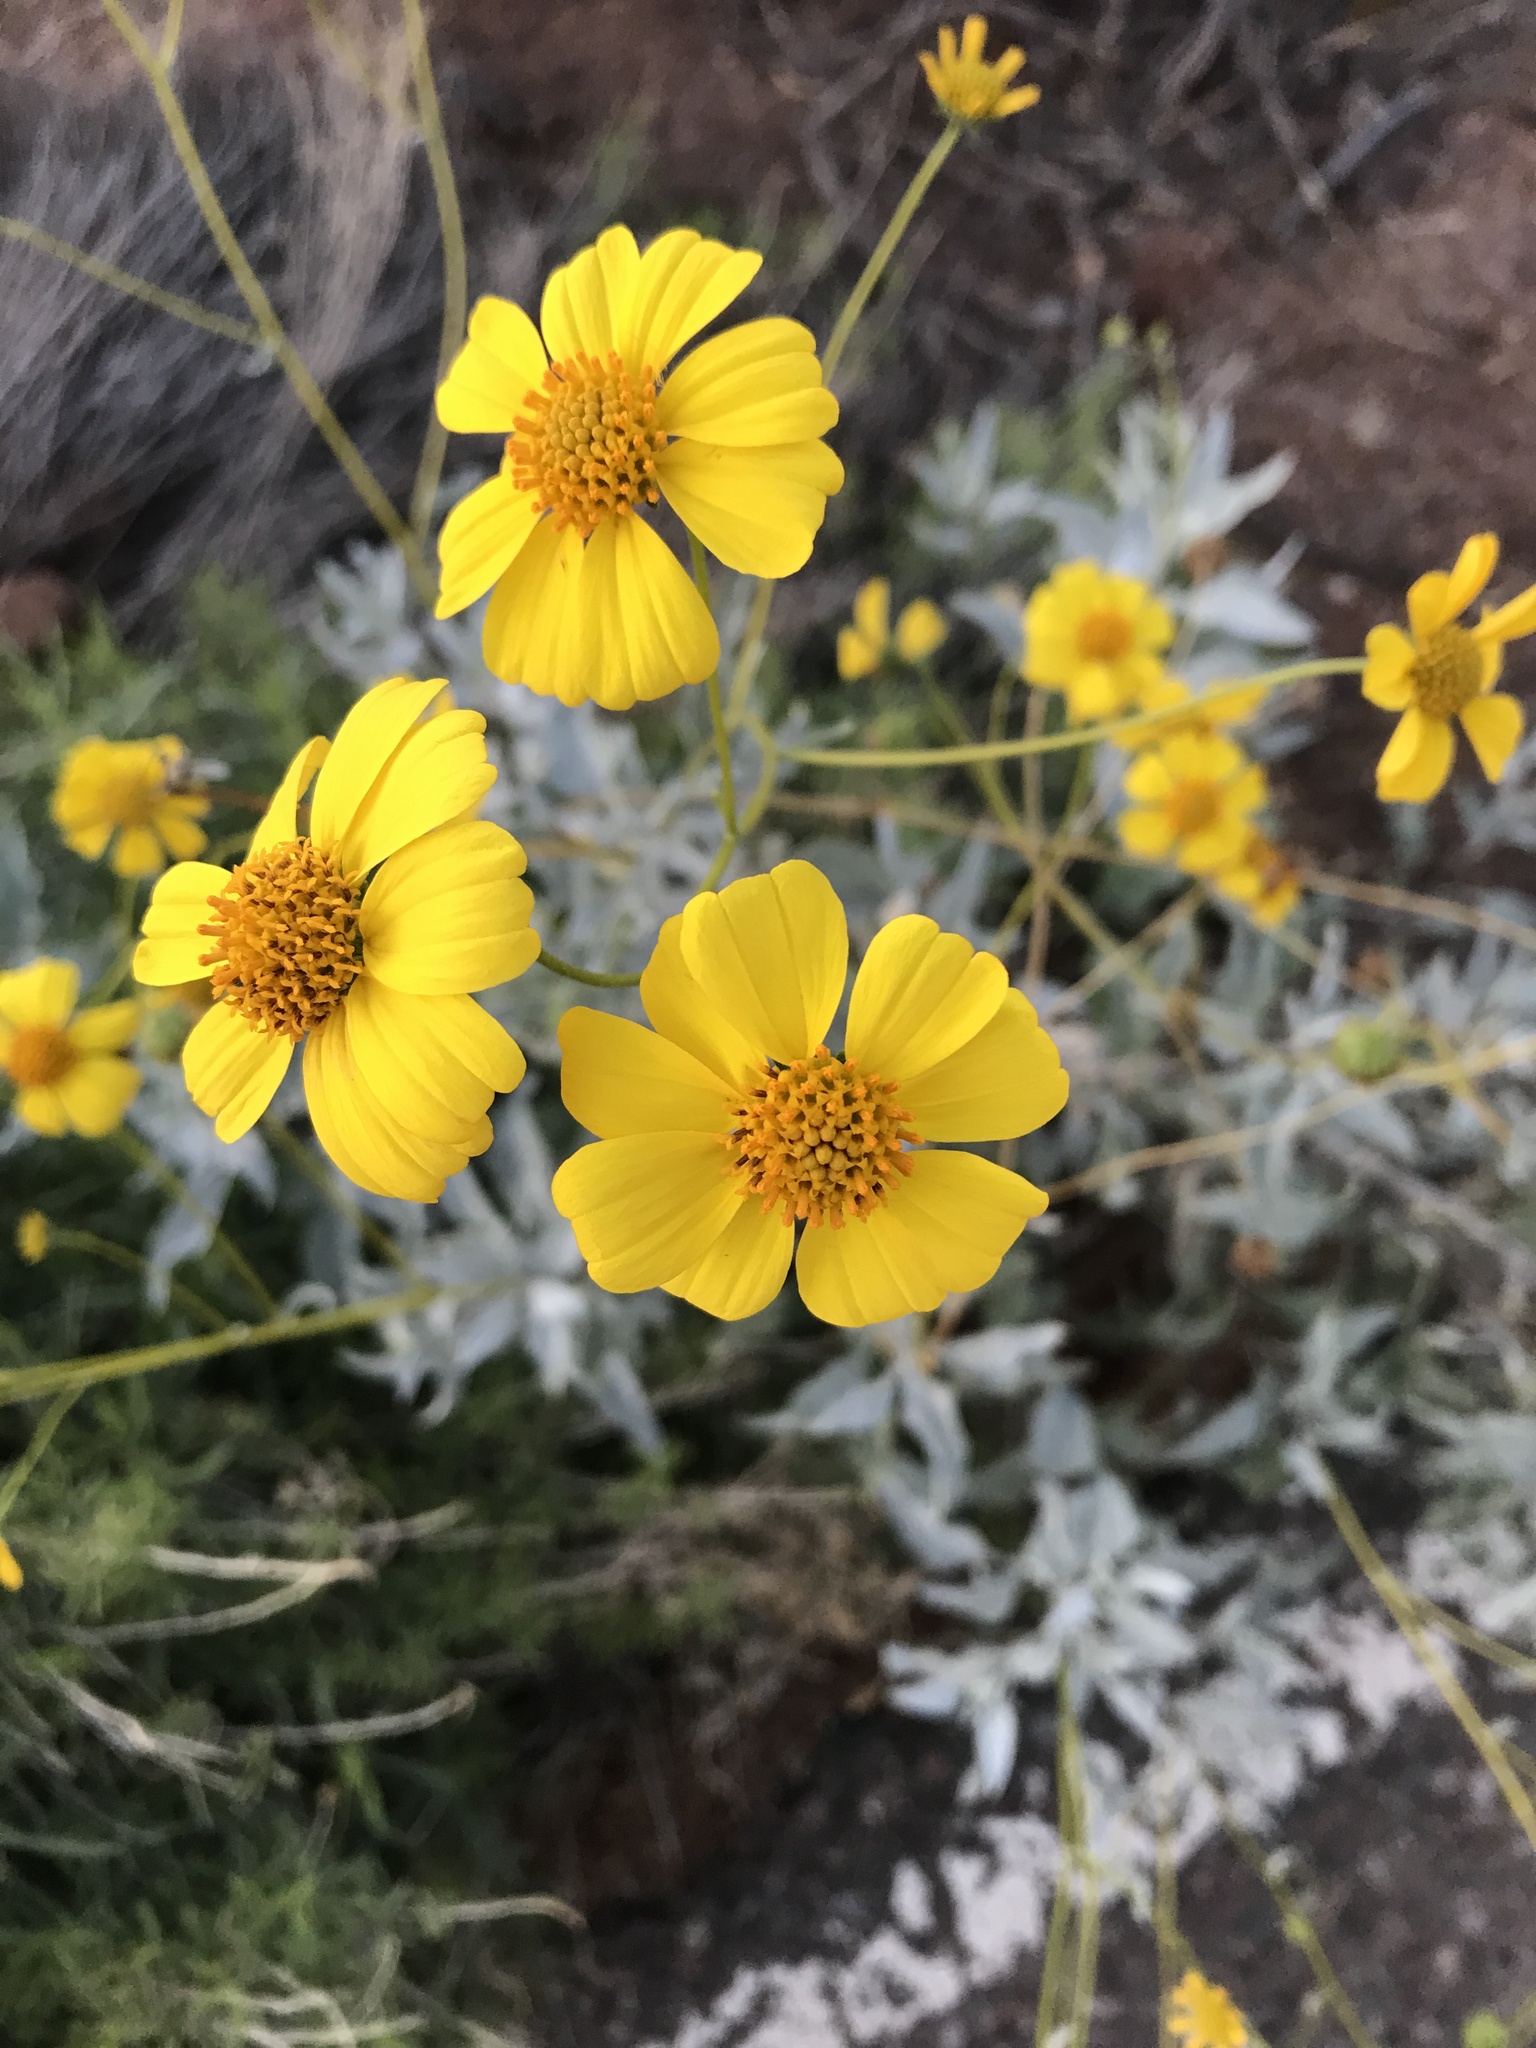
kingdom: Plantae
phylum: Tracheophyta
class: Magnoliopsida
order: Asterales
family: Asteraceae
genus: Encelia
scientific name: Encelia farinosa
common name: Brittlebush
